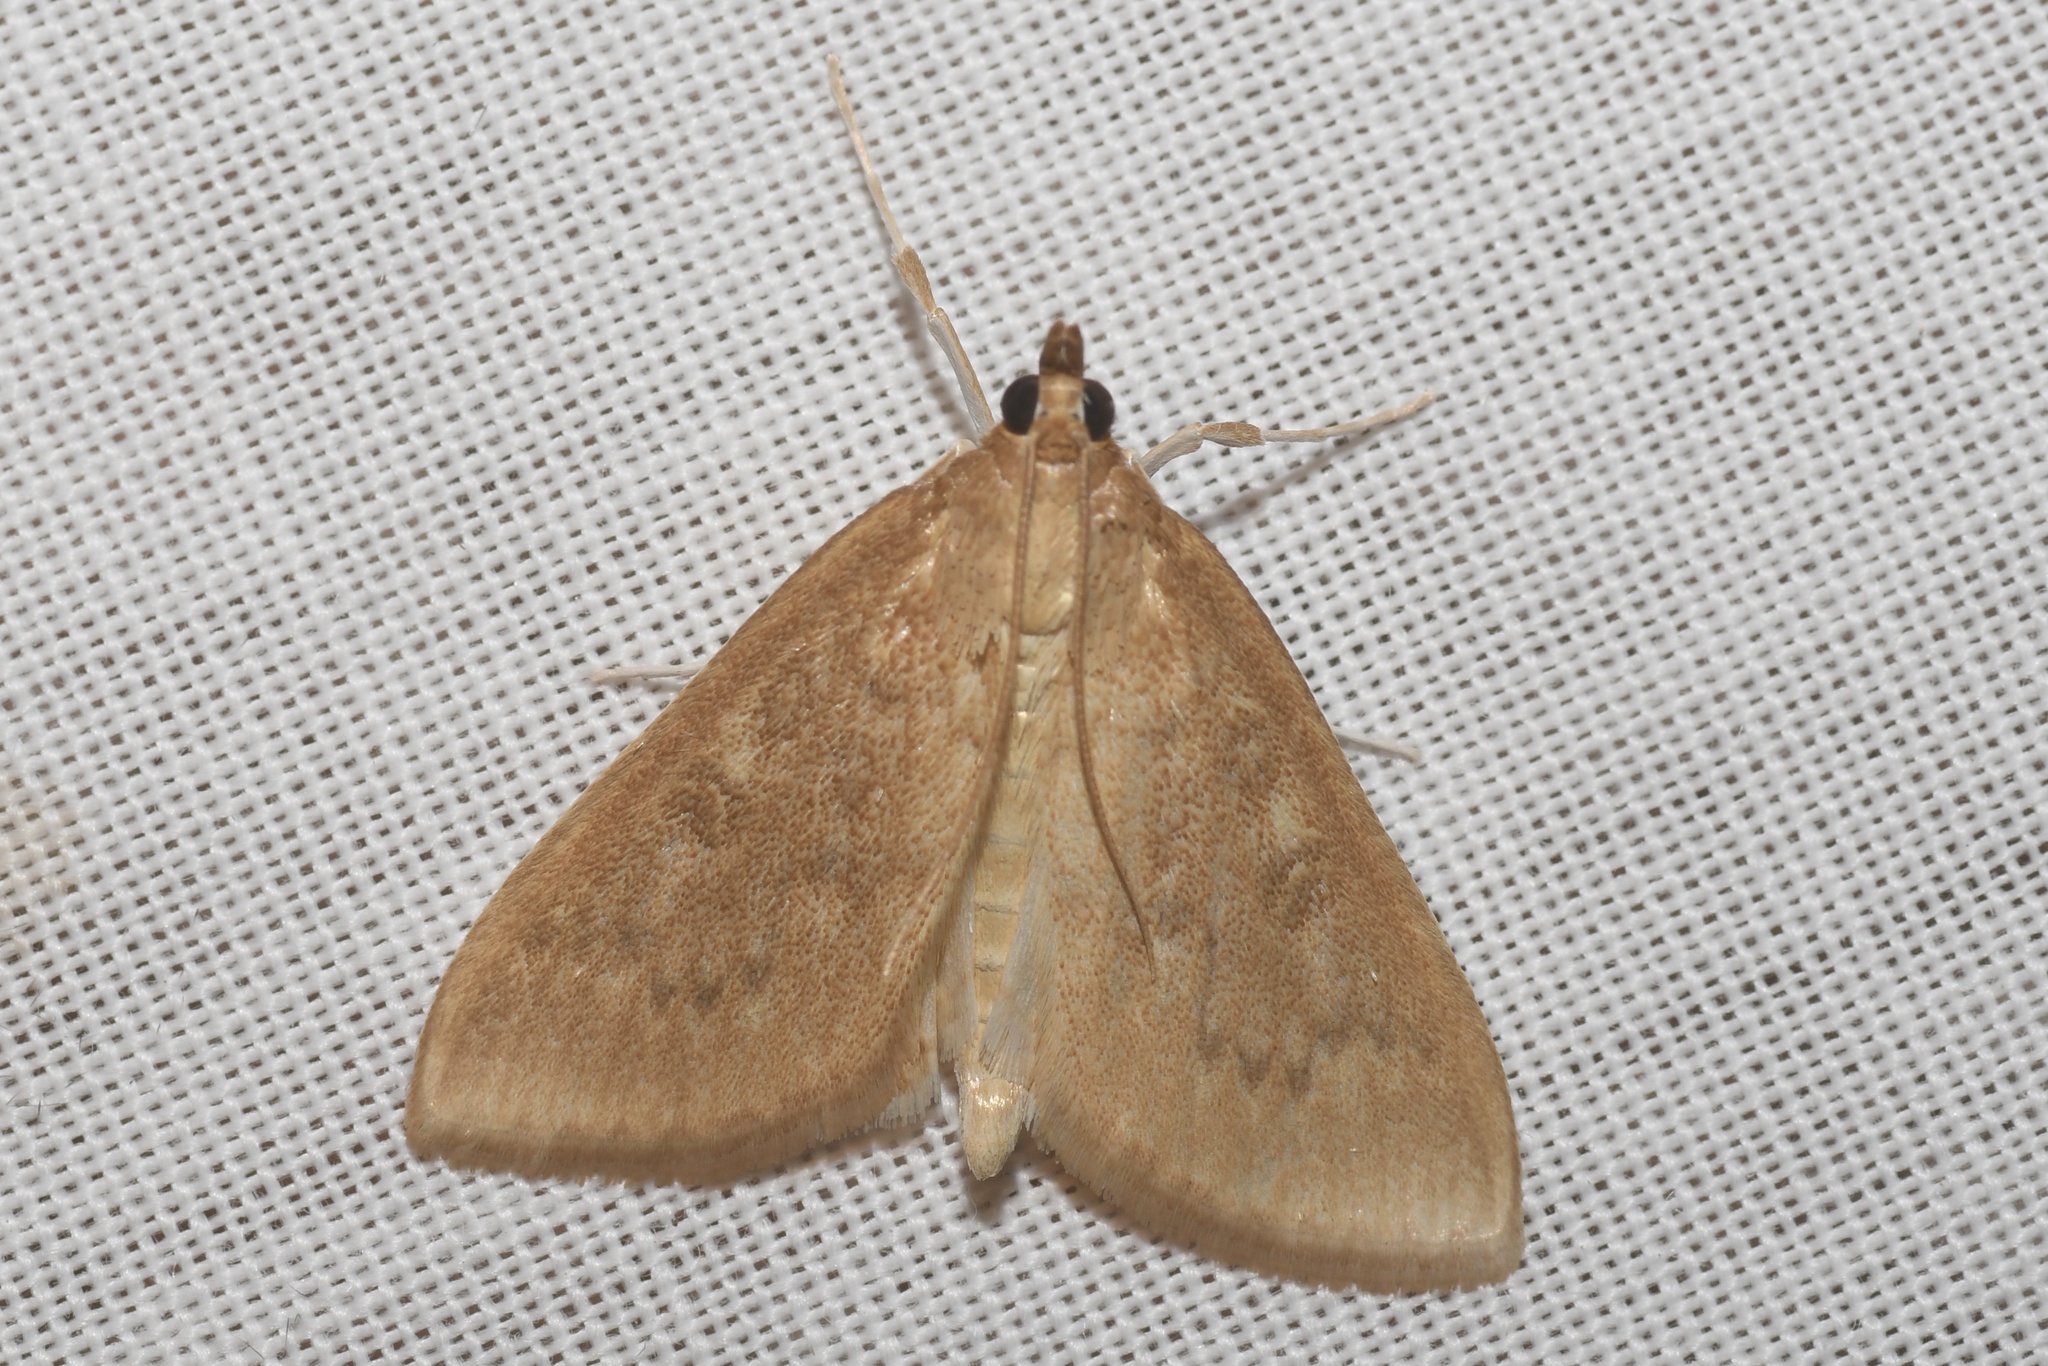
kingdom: Animalia
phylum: Arthropoda
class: Insecta
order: Lepidoptera
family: Crambidae
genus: Anania
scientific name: Anania Framinghamia helvalis
